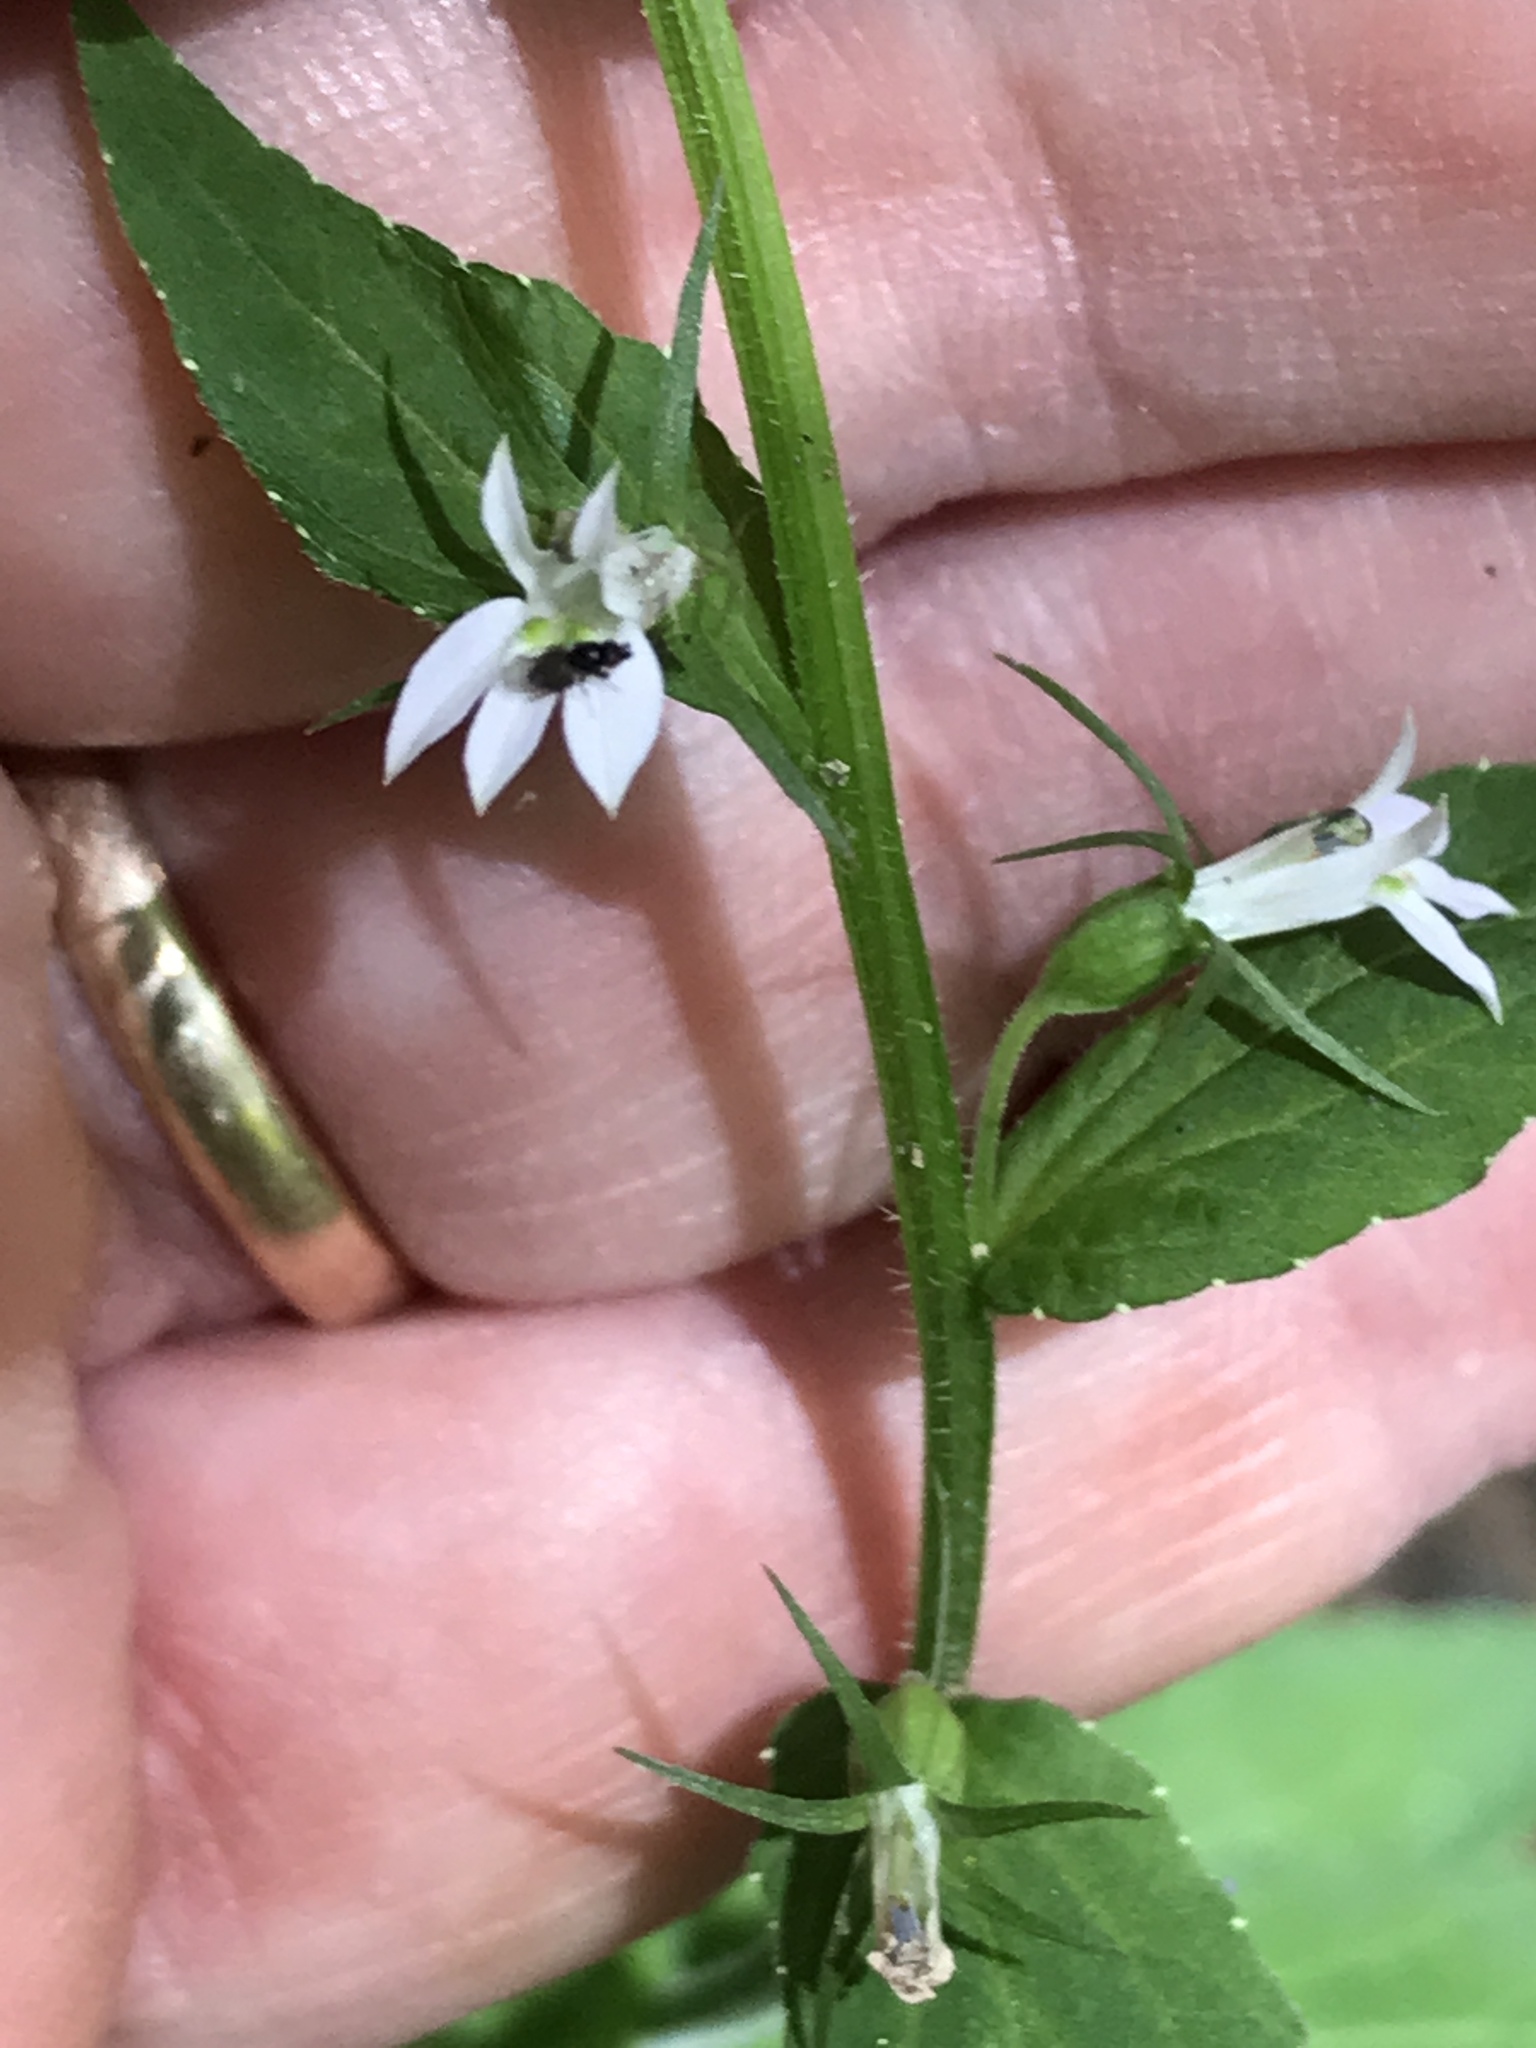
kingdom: Plantae
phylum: Tracheophyta
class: Magnoliopsida
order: Asterales
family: Campanulaceae
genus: Lobelia
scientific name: Lobelia inflata
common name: Indian tobacco
